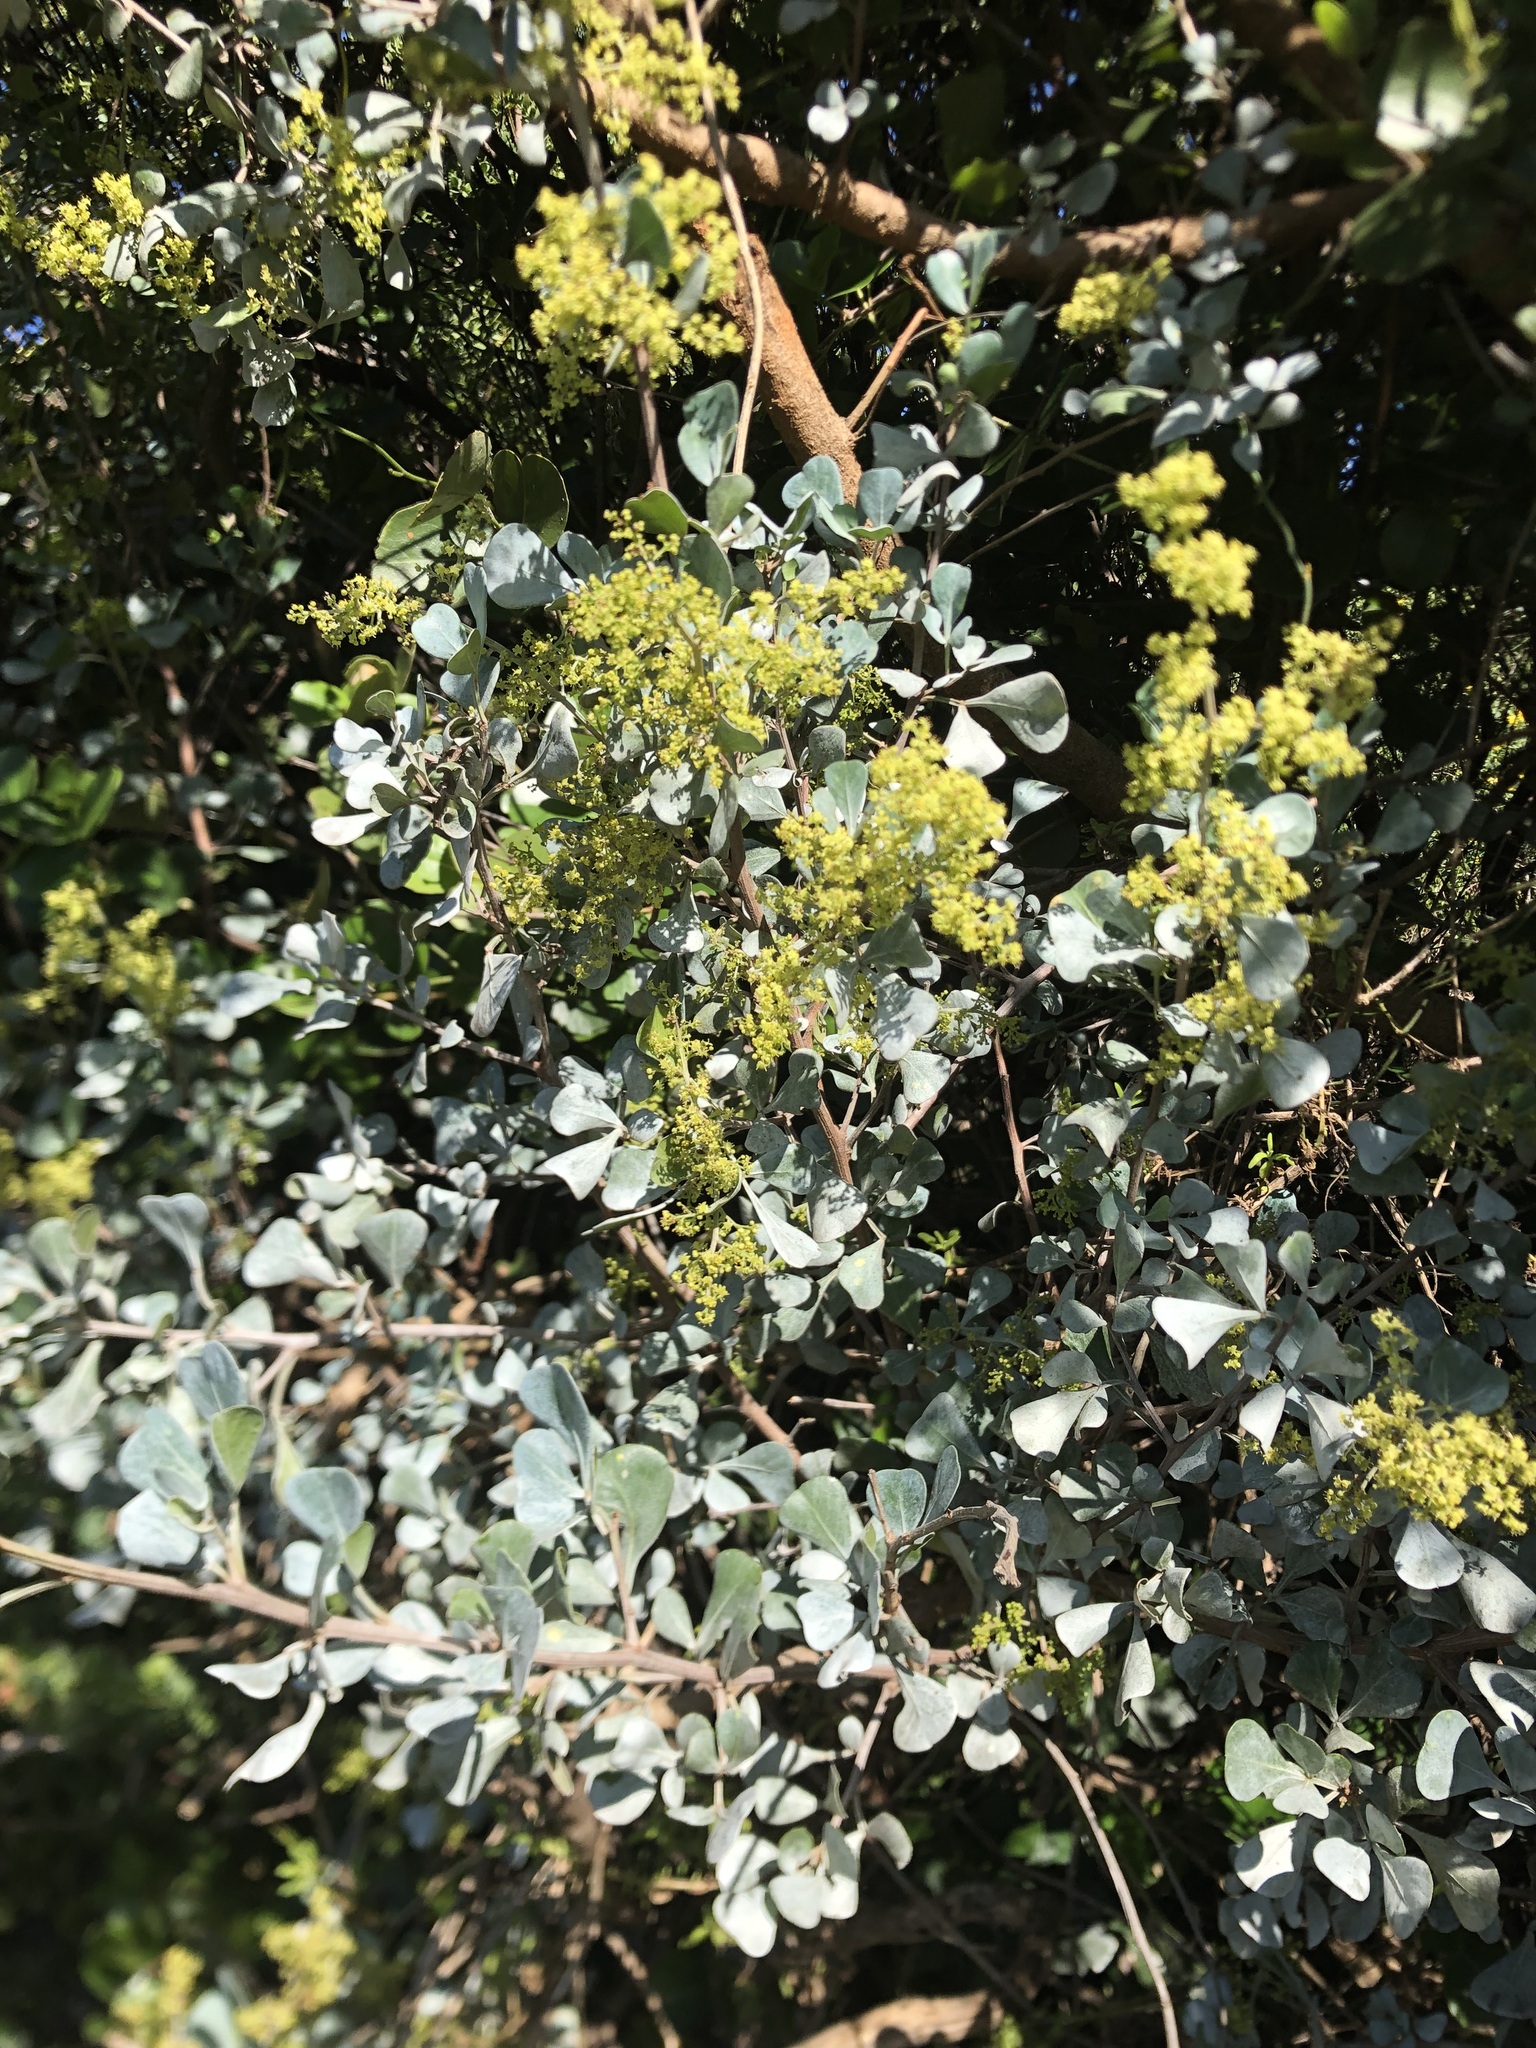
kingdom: Plantae
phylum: Tracheophyta
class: Magnoliopsida
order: Sapindales
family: Anacardiaceae
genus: Searsia
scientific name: Searsia glauca
